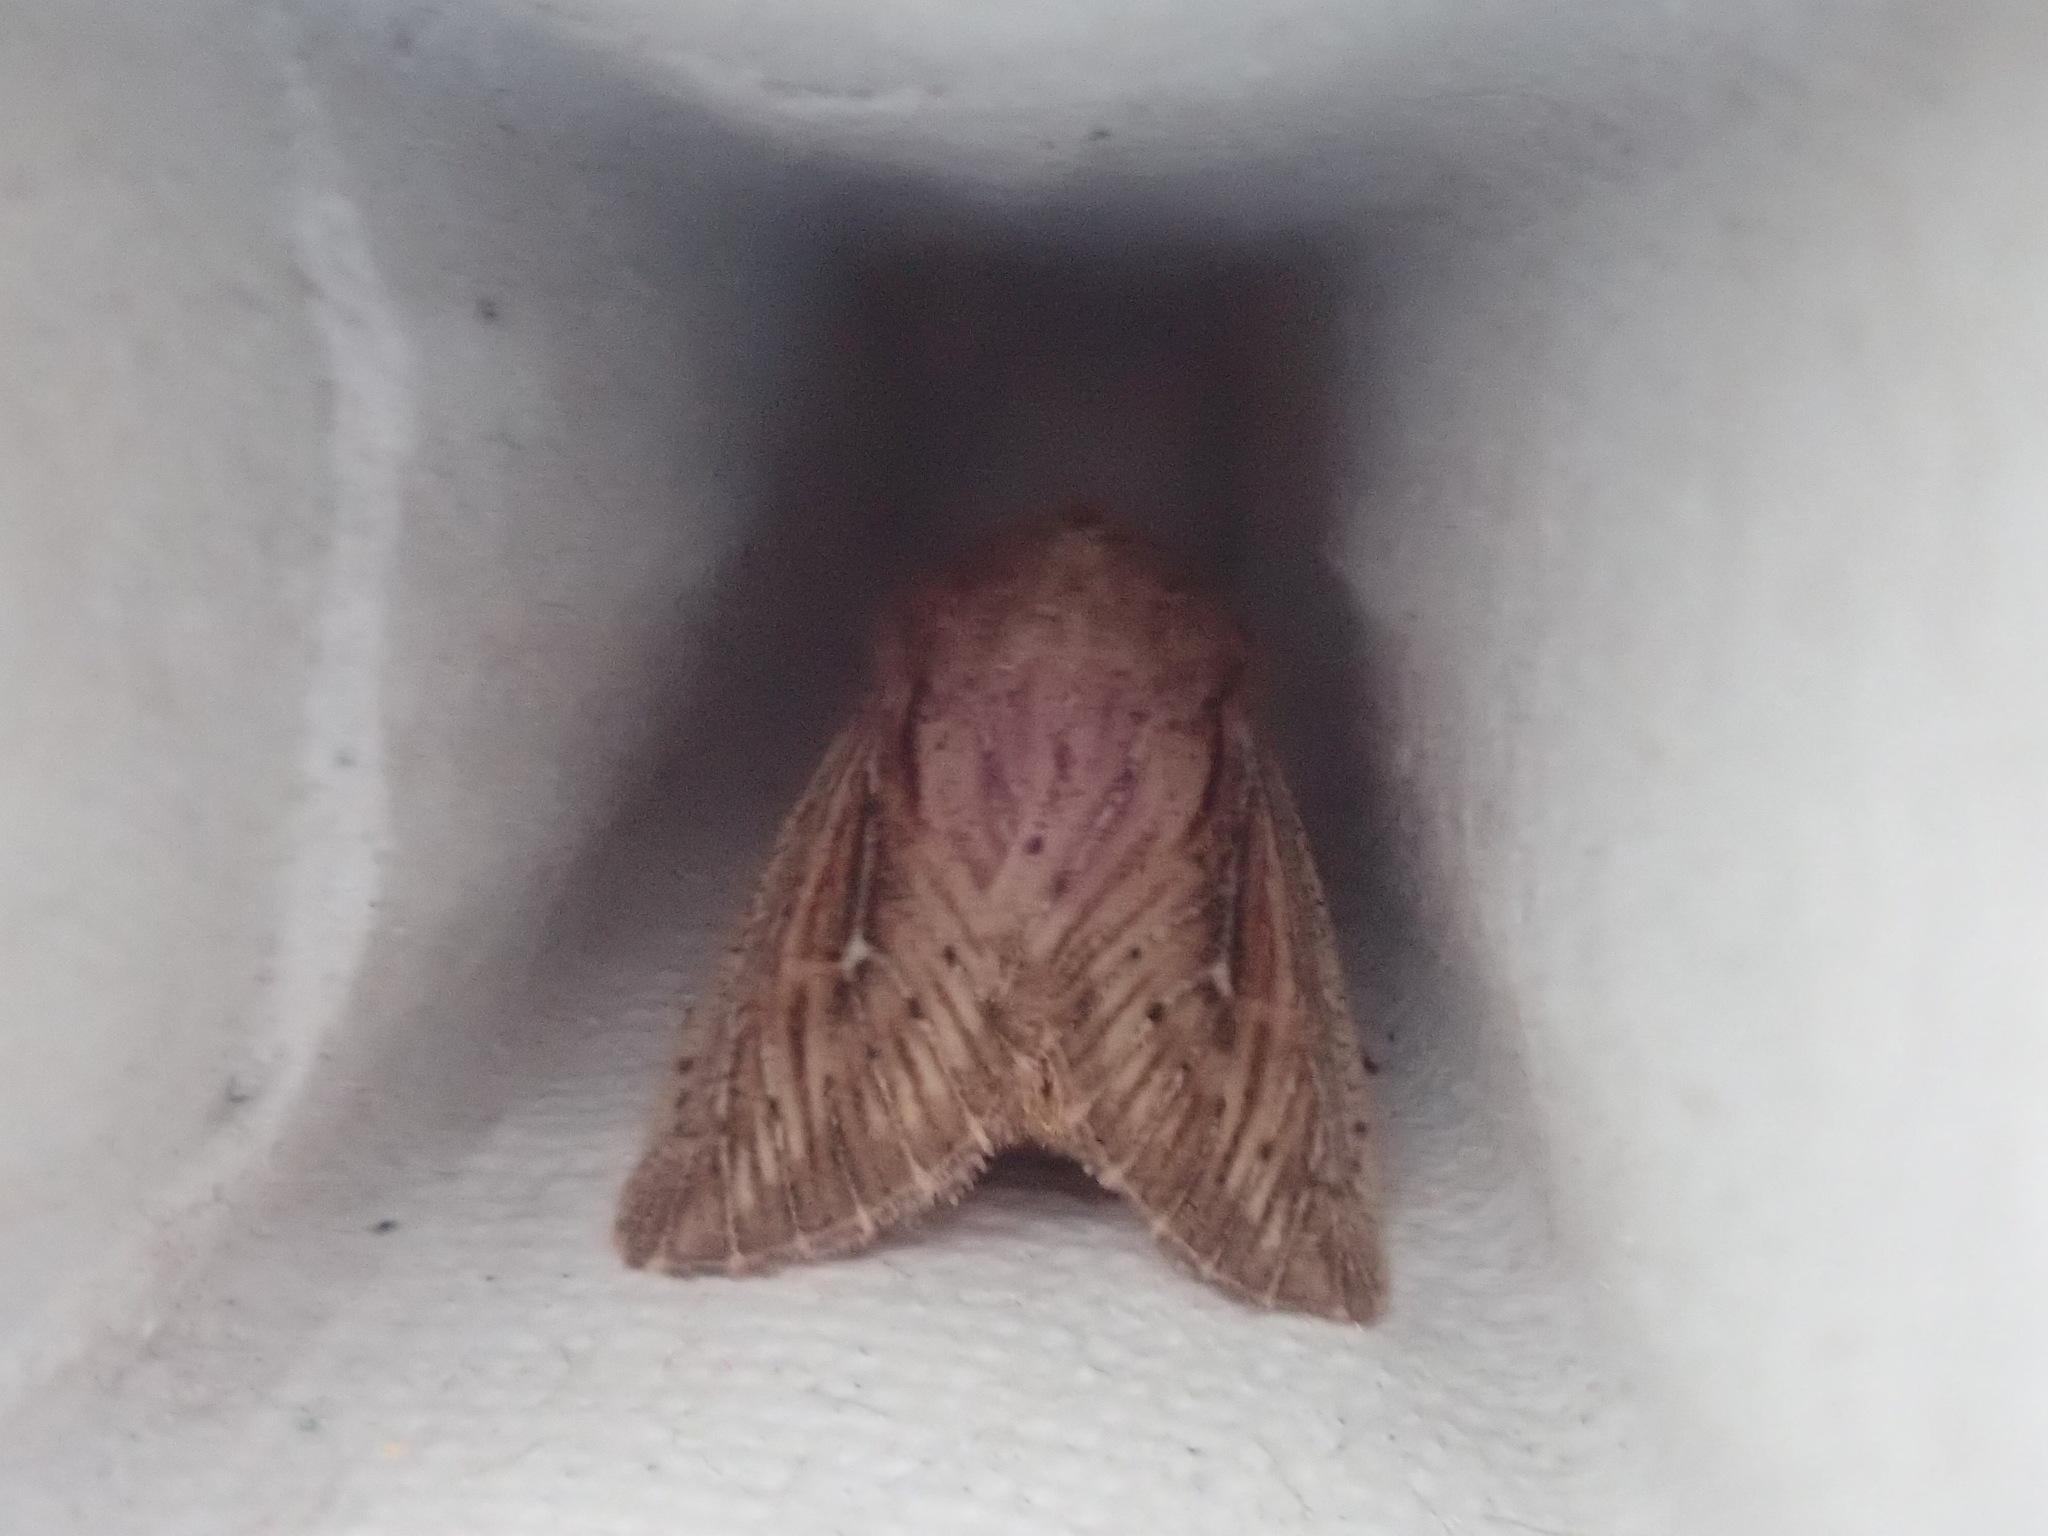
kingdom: Animalia
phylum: Arthropoda
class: Insecta
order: Lepidoptera
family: Noctuidae
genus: Leucania
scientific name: Leucania insueta
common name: Heterodox wainscot moth
